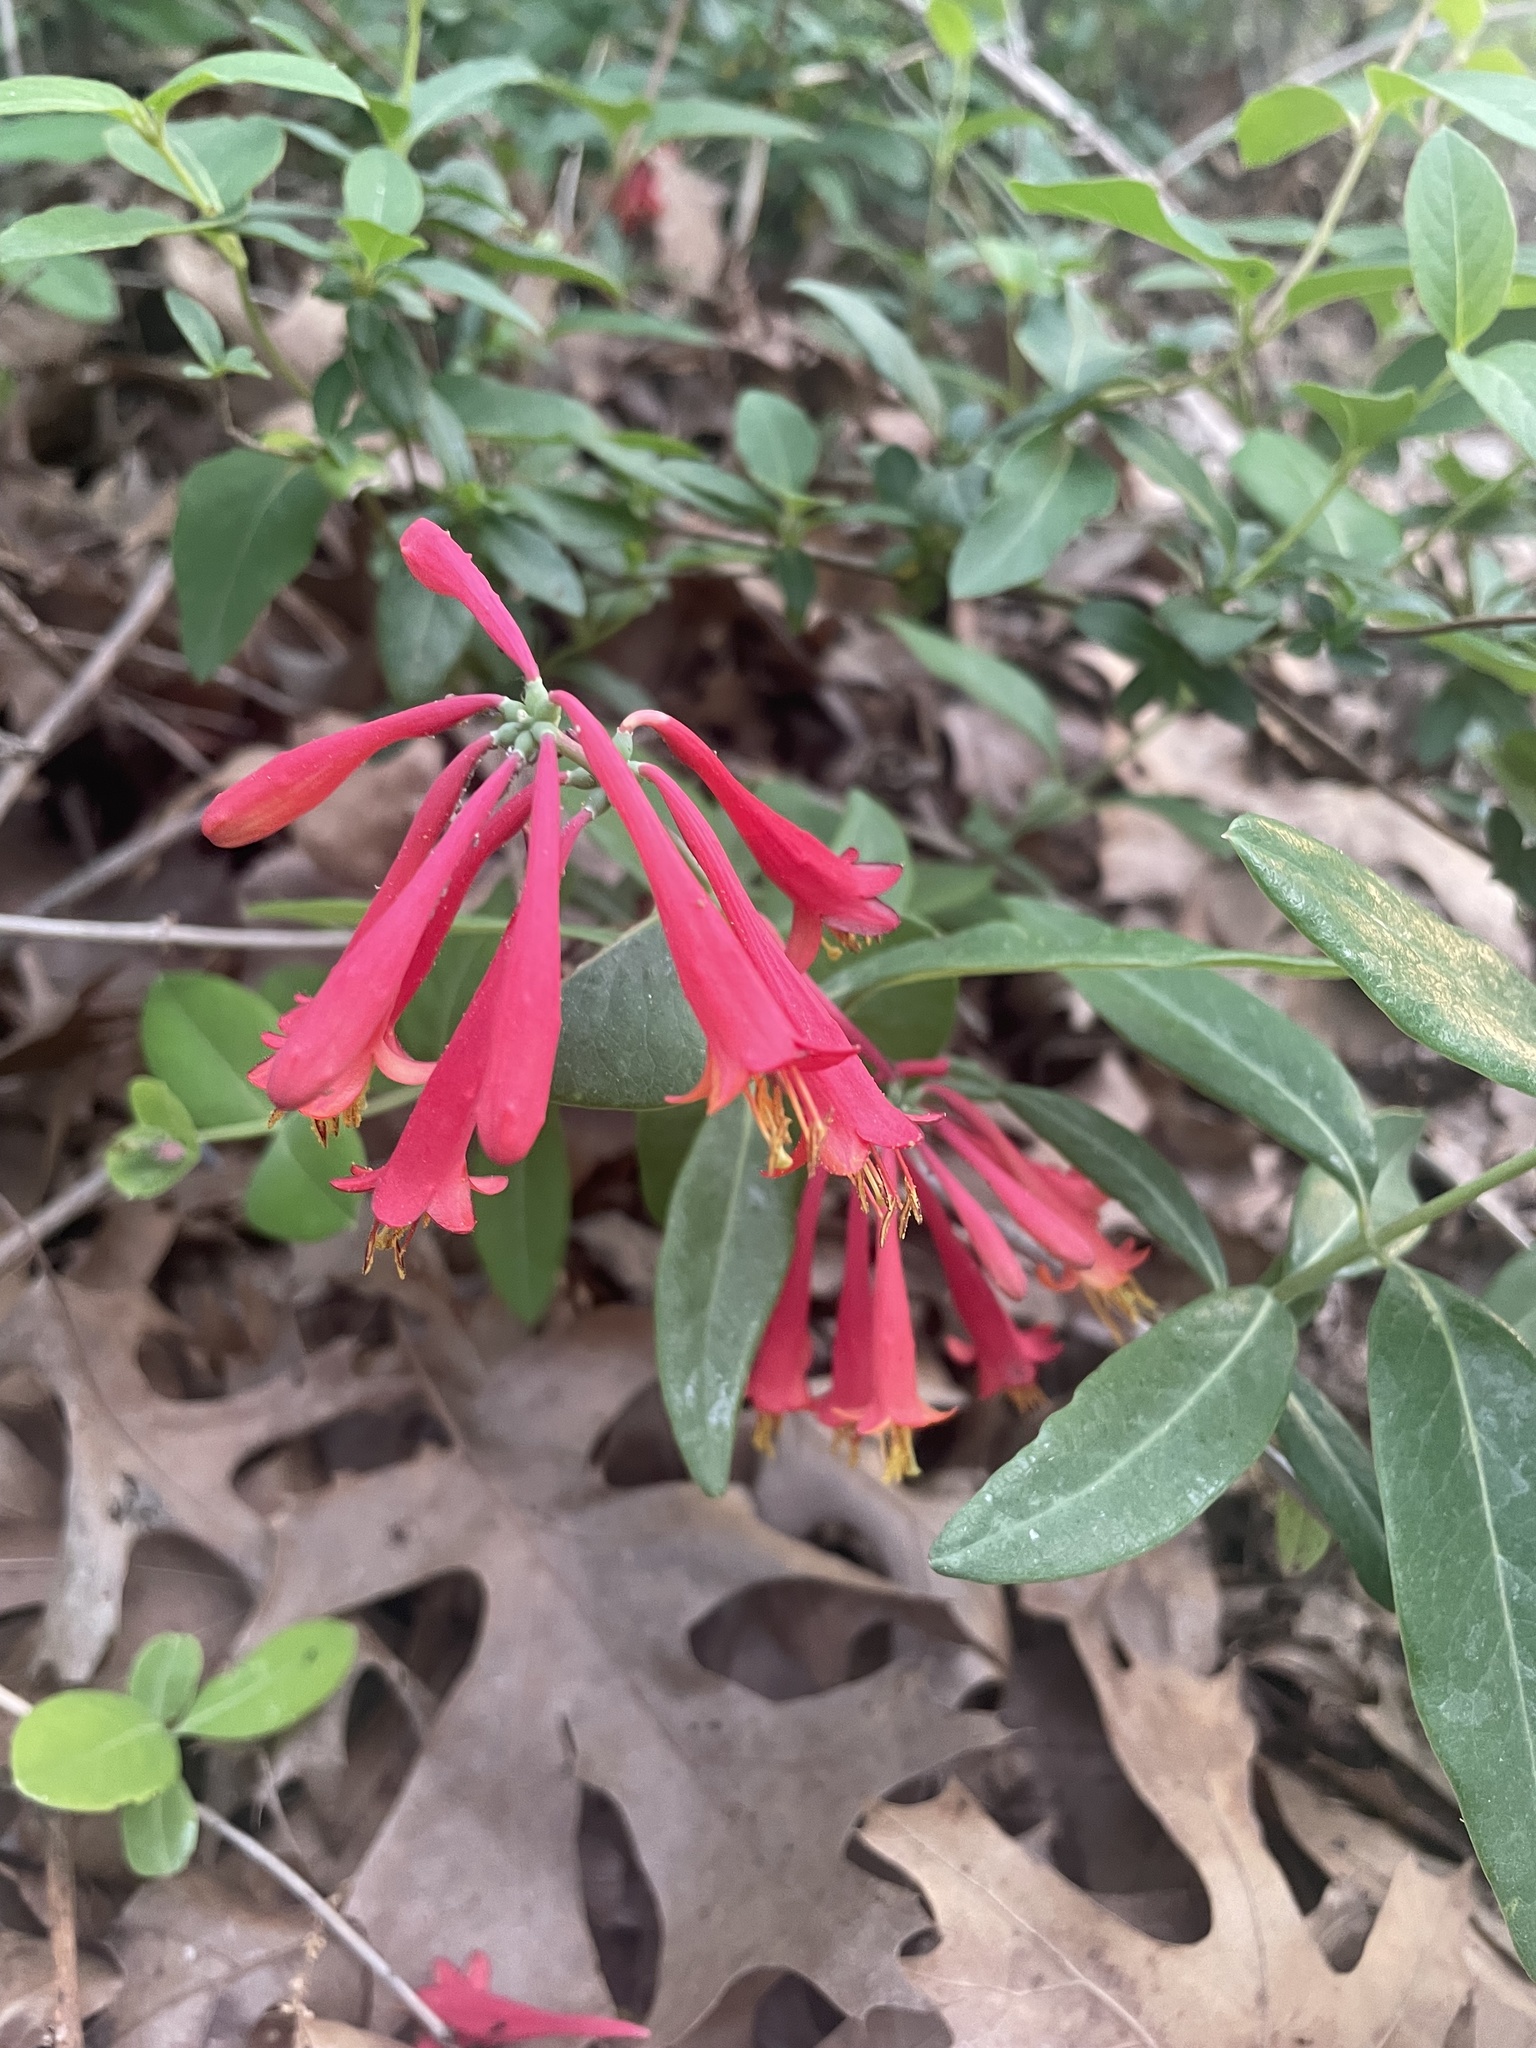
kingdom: Plantae
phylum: Tracheophyta
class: Magnoliopsida
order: Dipsacales
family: Caprifoliaceae
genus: Lonicera
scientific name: Lonicera sempervirens
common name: Coral honeysuckle
